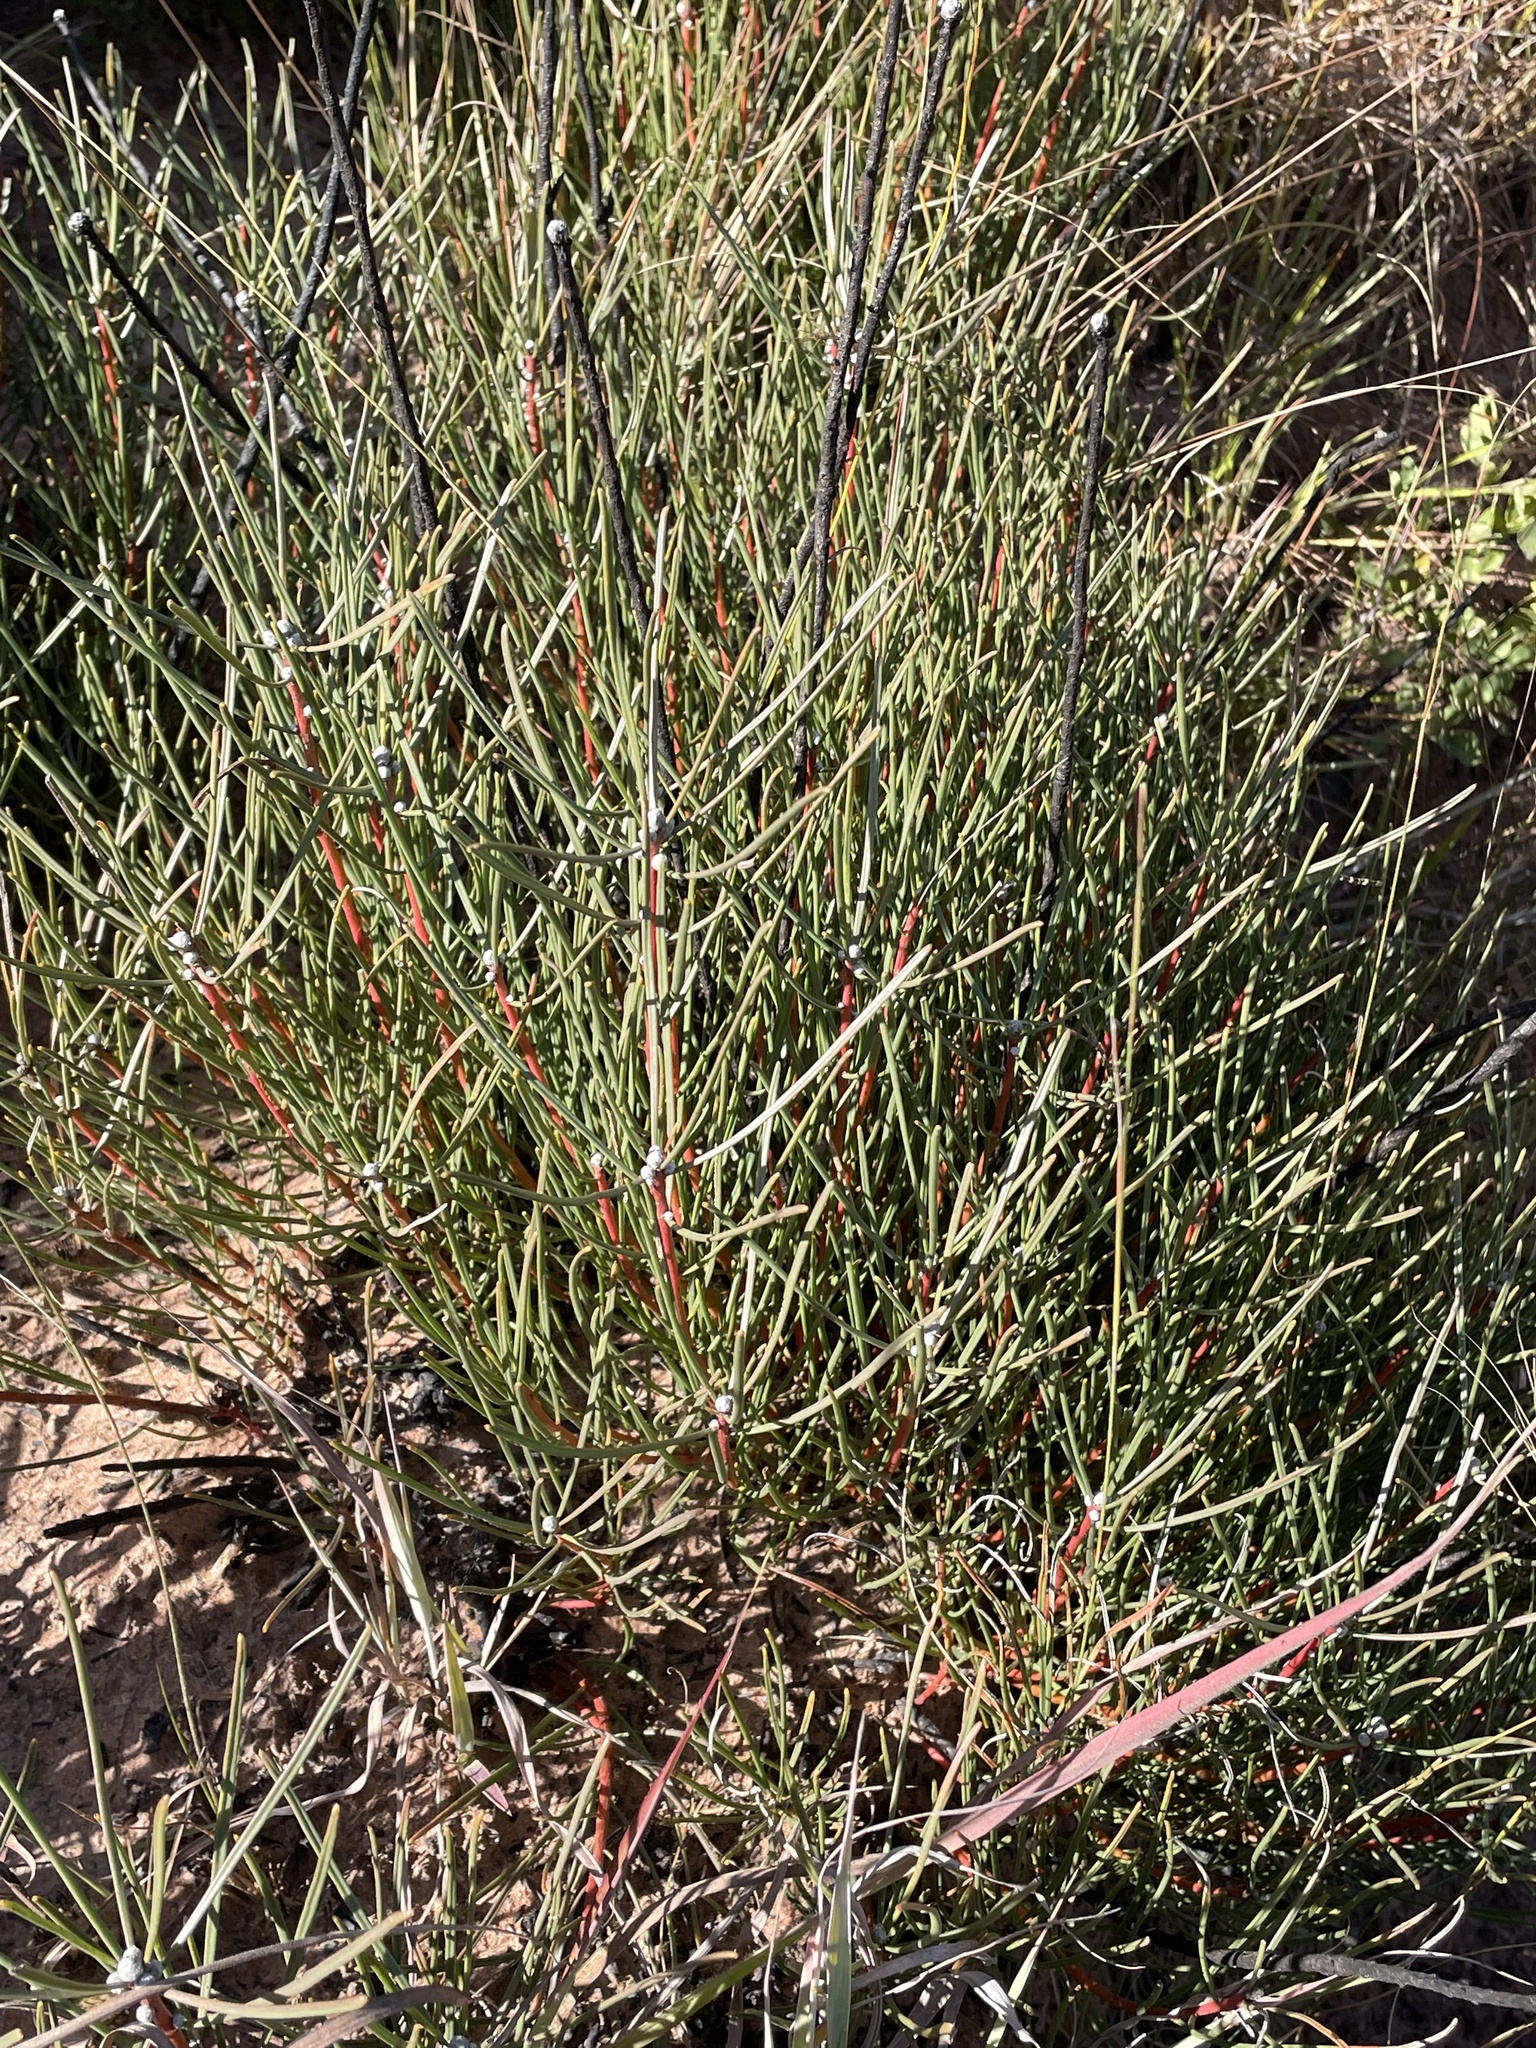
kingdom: Plantae
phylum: Tracheophyta
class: Magnoliopsida
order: Proteales
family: Proteaceae
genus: Protea
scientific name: Protea baumii
